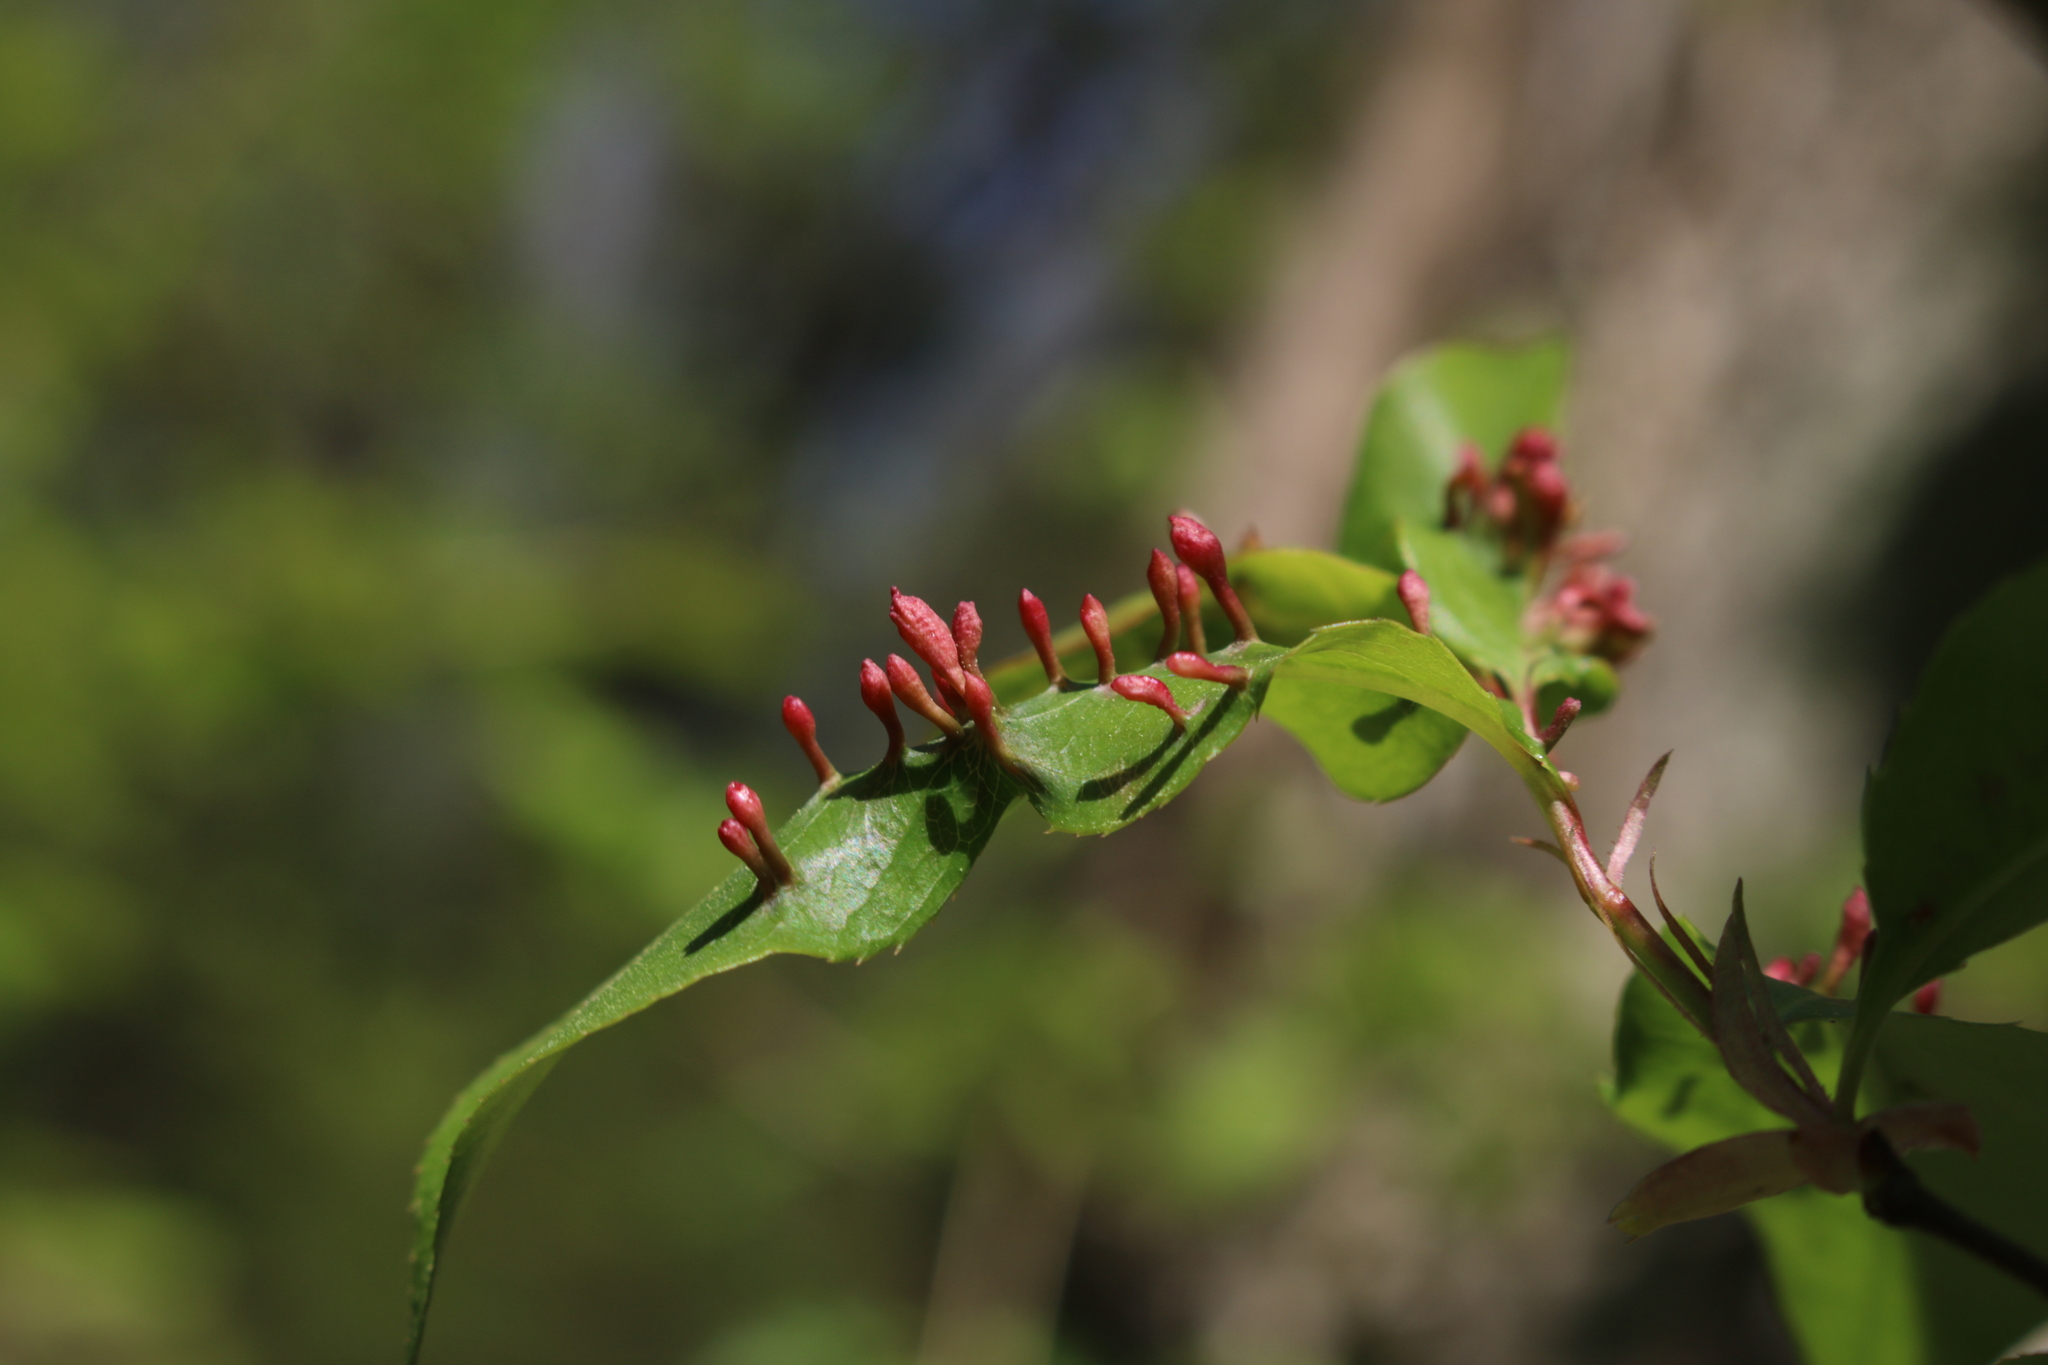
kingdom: Animalia
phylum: Arthropoda
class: Arachnida
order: Trombidiformes
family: Eriophyidae
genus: Eriophyes
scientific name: Eriophyes
